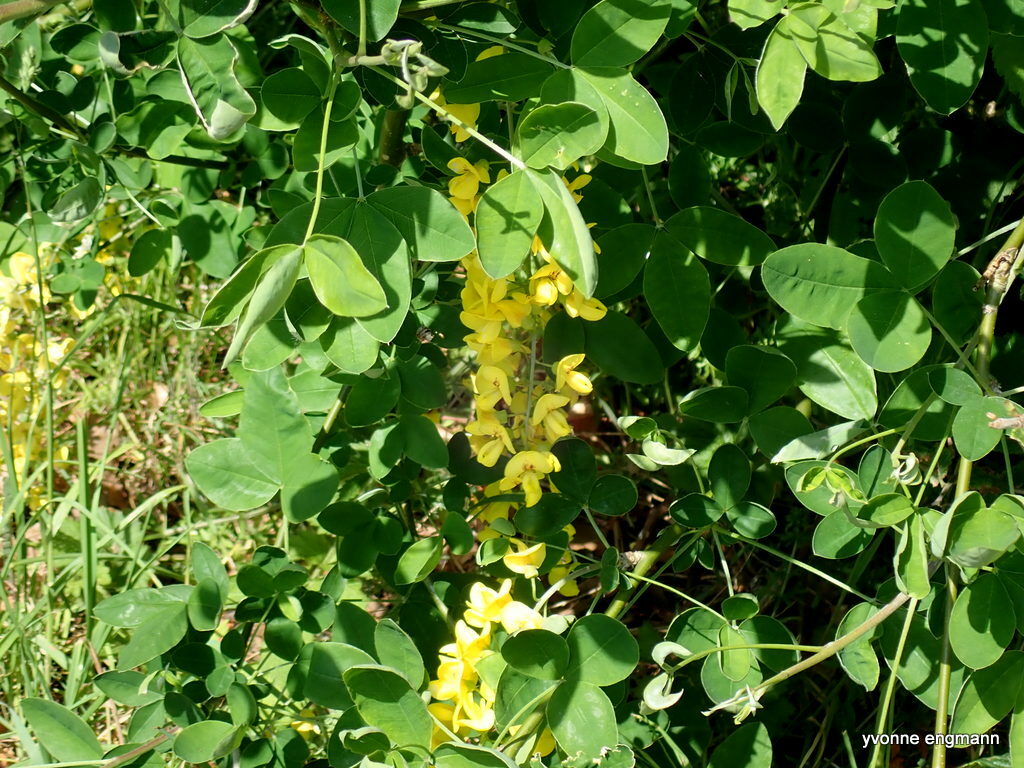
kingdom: Plantae
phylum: Tracheophyta
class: Magnoliopsida
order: Fabales
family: Fabaceae
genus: Laburnum
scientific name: Laburnum anagyroides
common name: Laburnum
